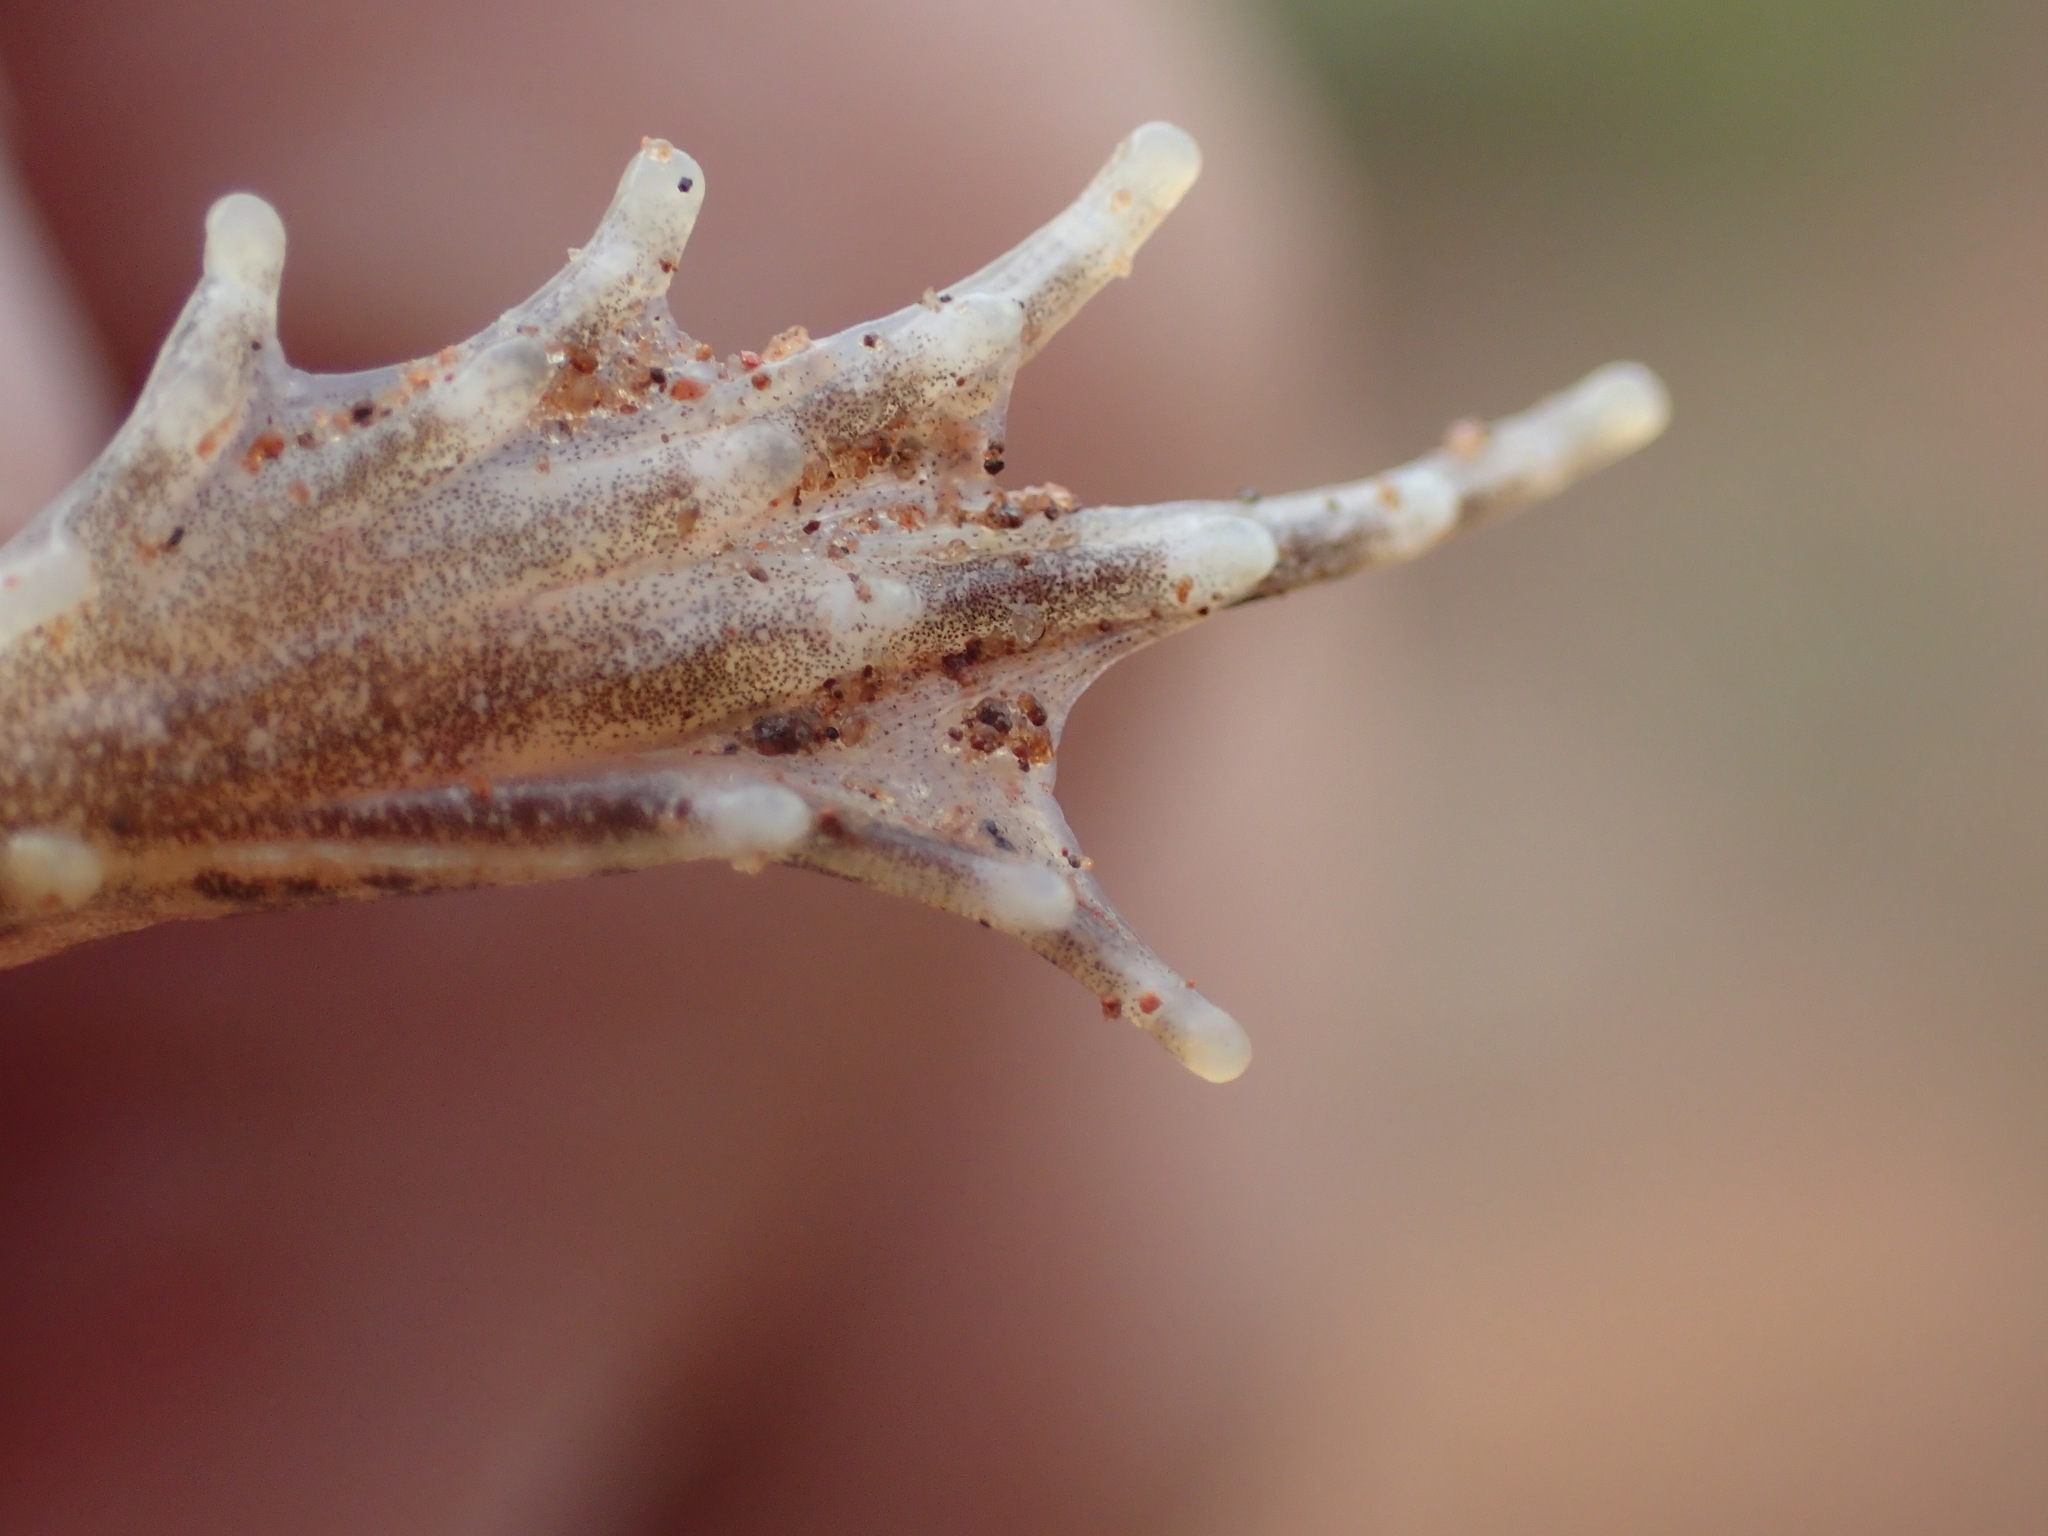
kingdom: Animalia
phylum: Chordata
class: Amphibia
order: Anura
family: Phrynobatrachidae
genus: Phrynobatrachus
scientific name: Phrynobatrachus natalensis
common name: Snoring puddle frog
